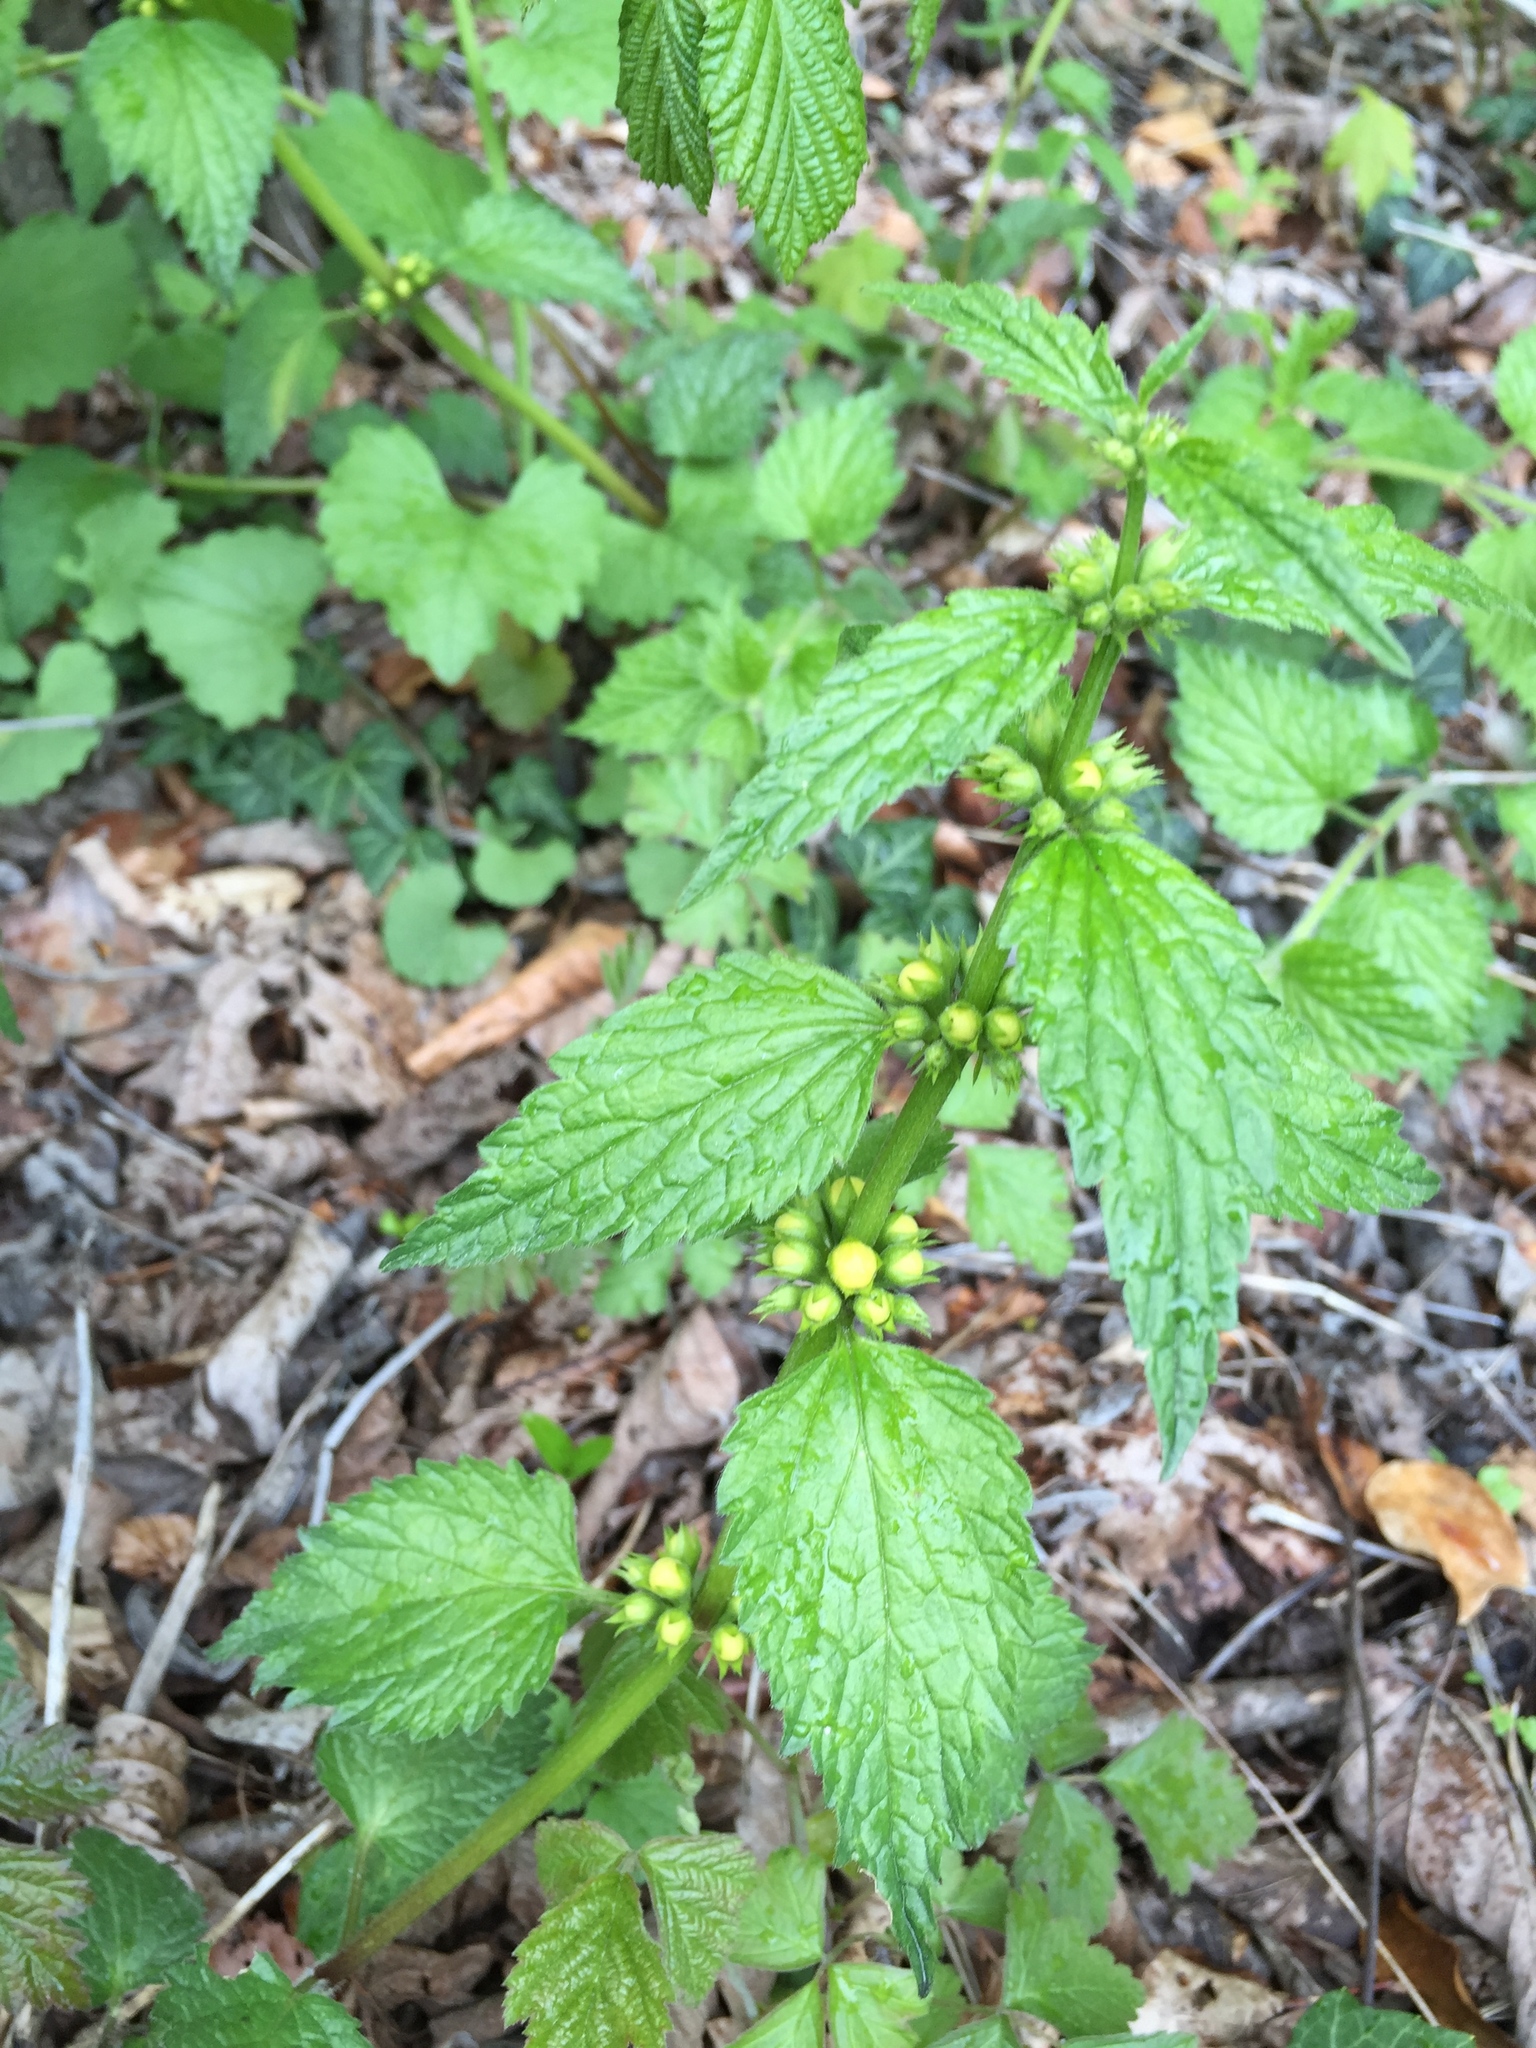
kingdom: Plantae
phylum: Tracheophyta
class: Magnoliopsida
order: Lamiales
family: Lamiaceae
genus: Lamium
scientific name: Lamium galeobdolon
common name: Yellow archangel
